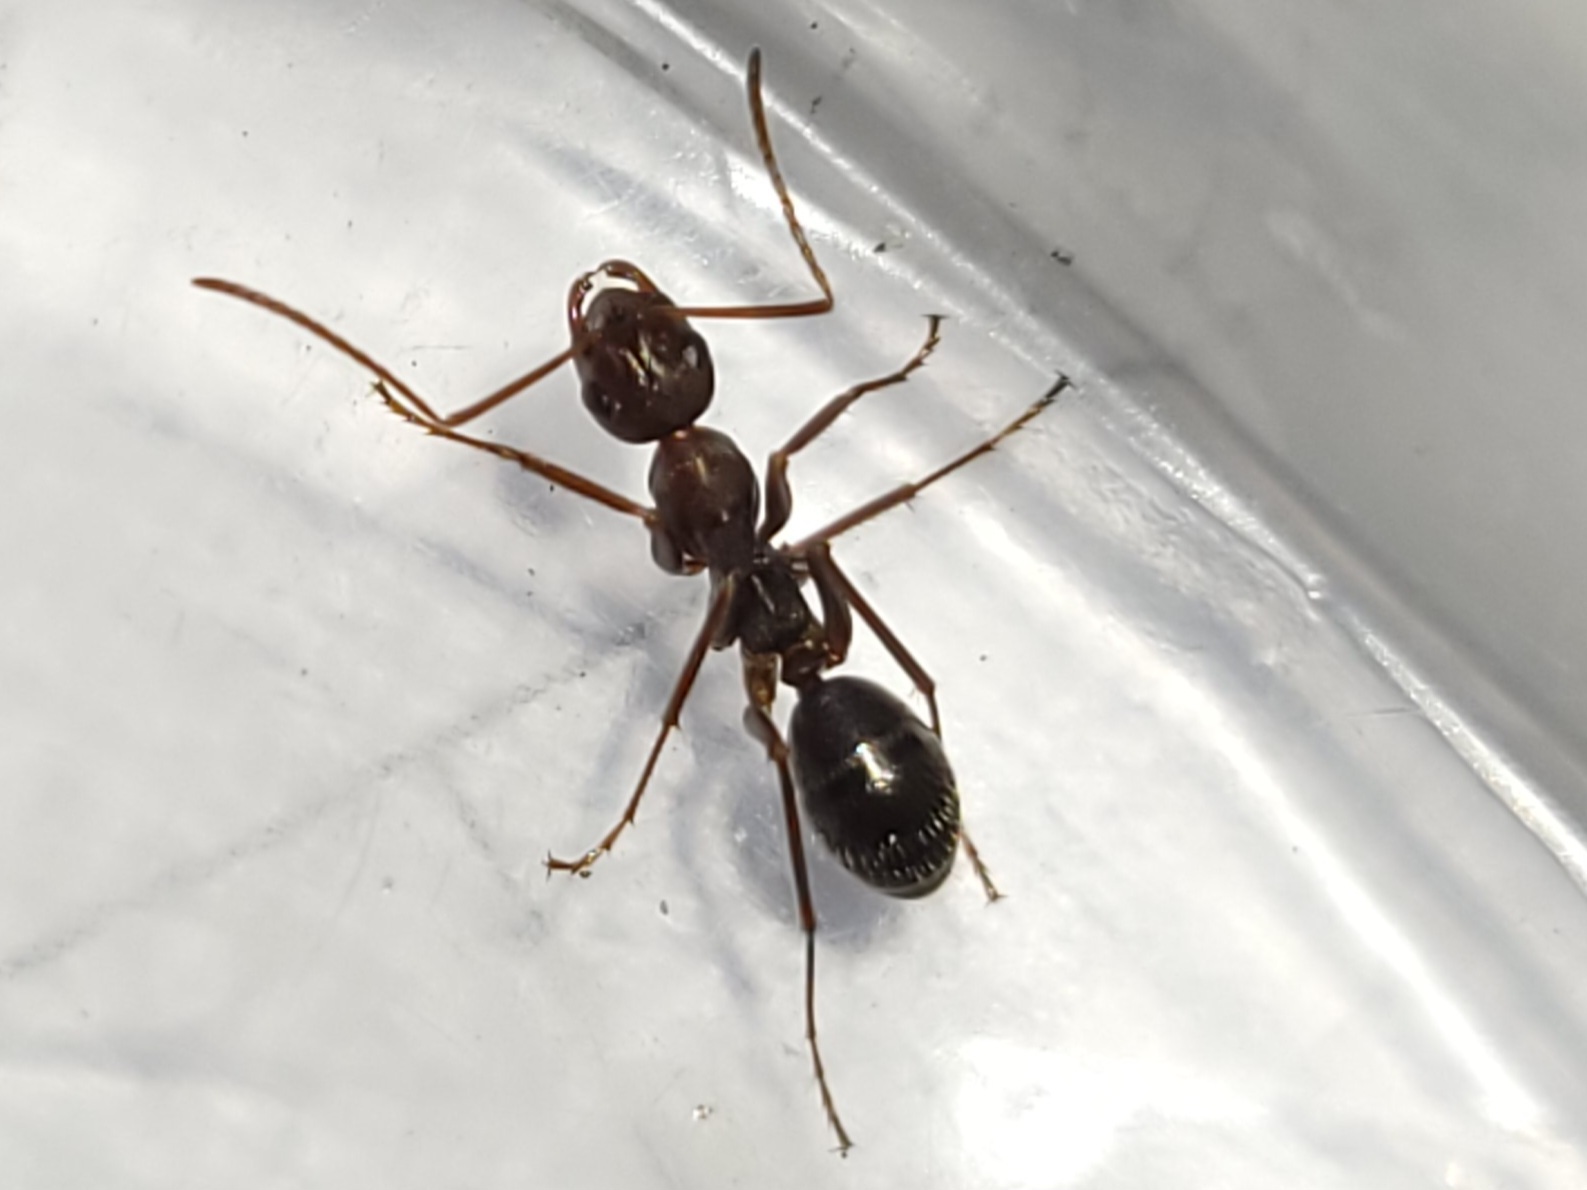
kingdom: Animalia
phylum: Arthropoda
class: Insecta
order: Hymenoptera
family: Formicidae
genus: Formica
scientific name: Formica archboldi
